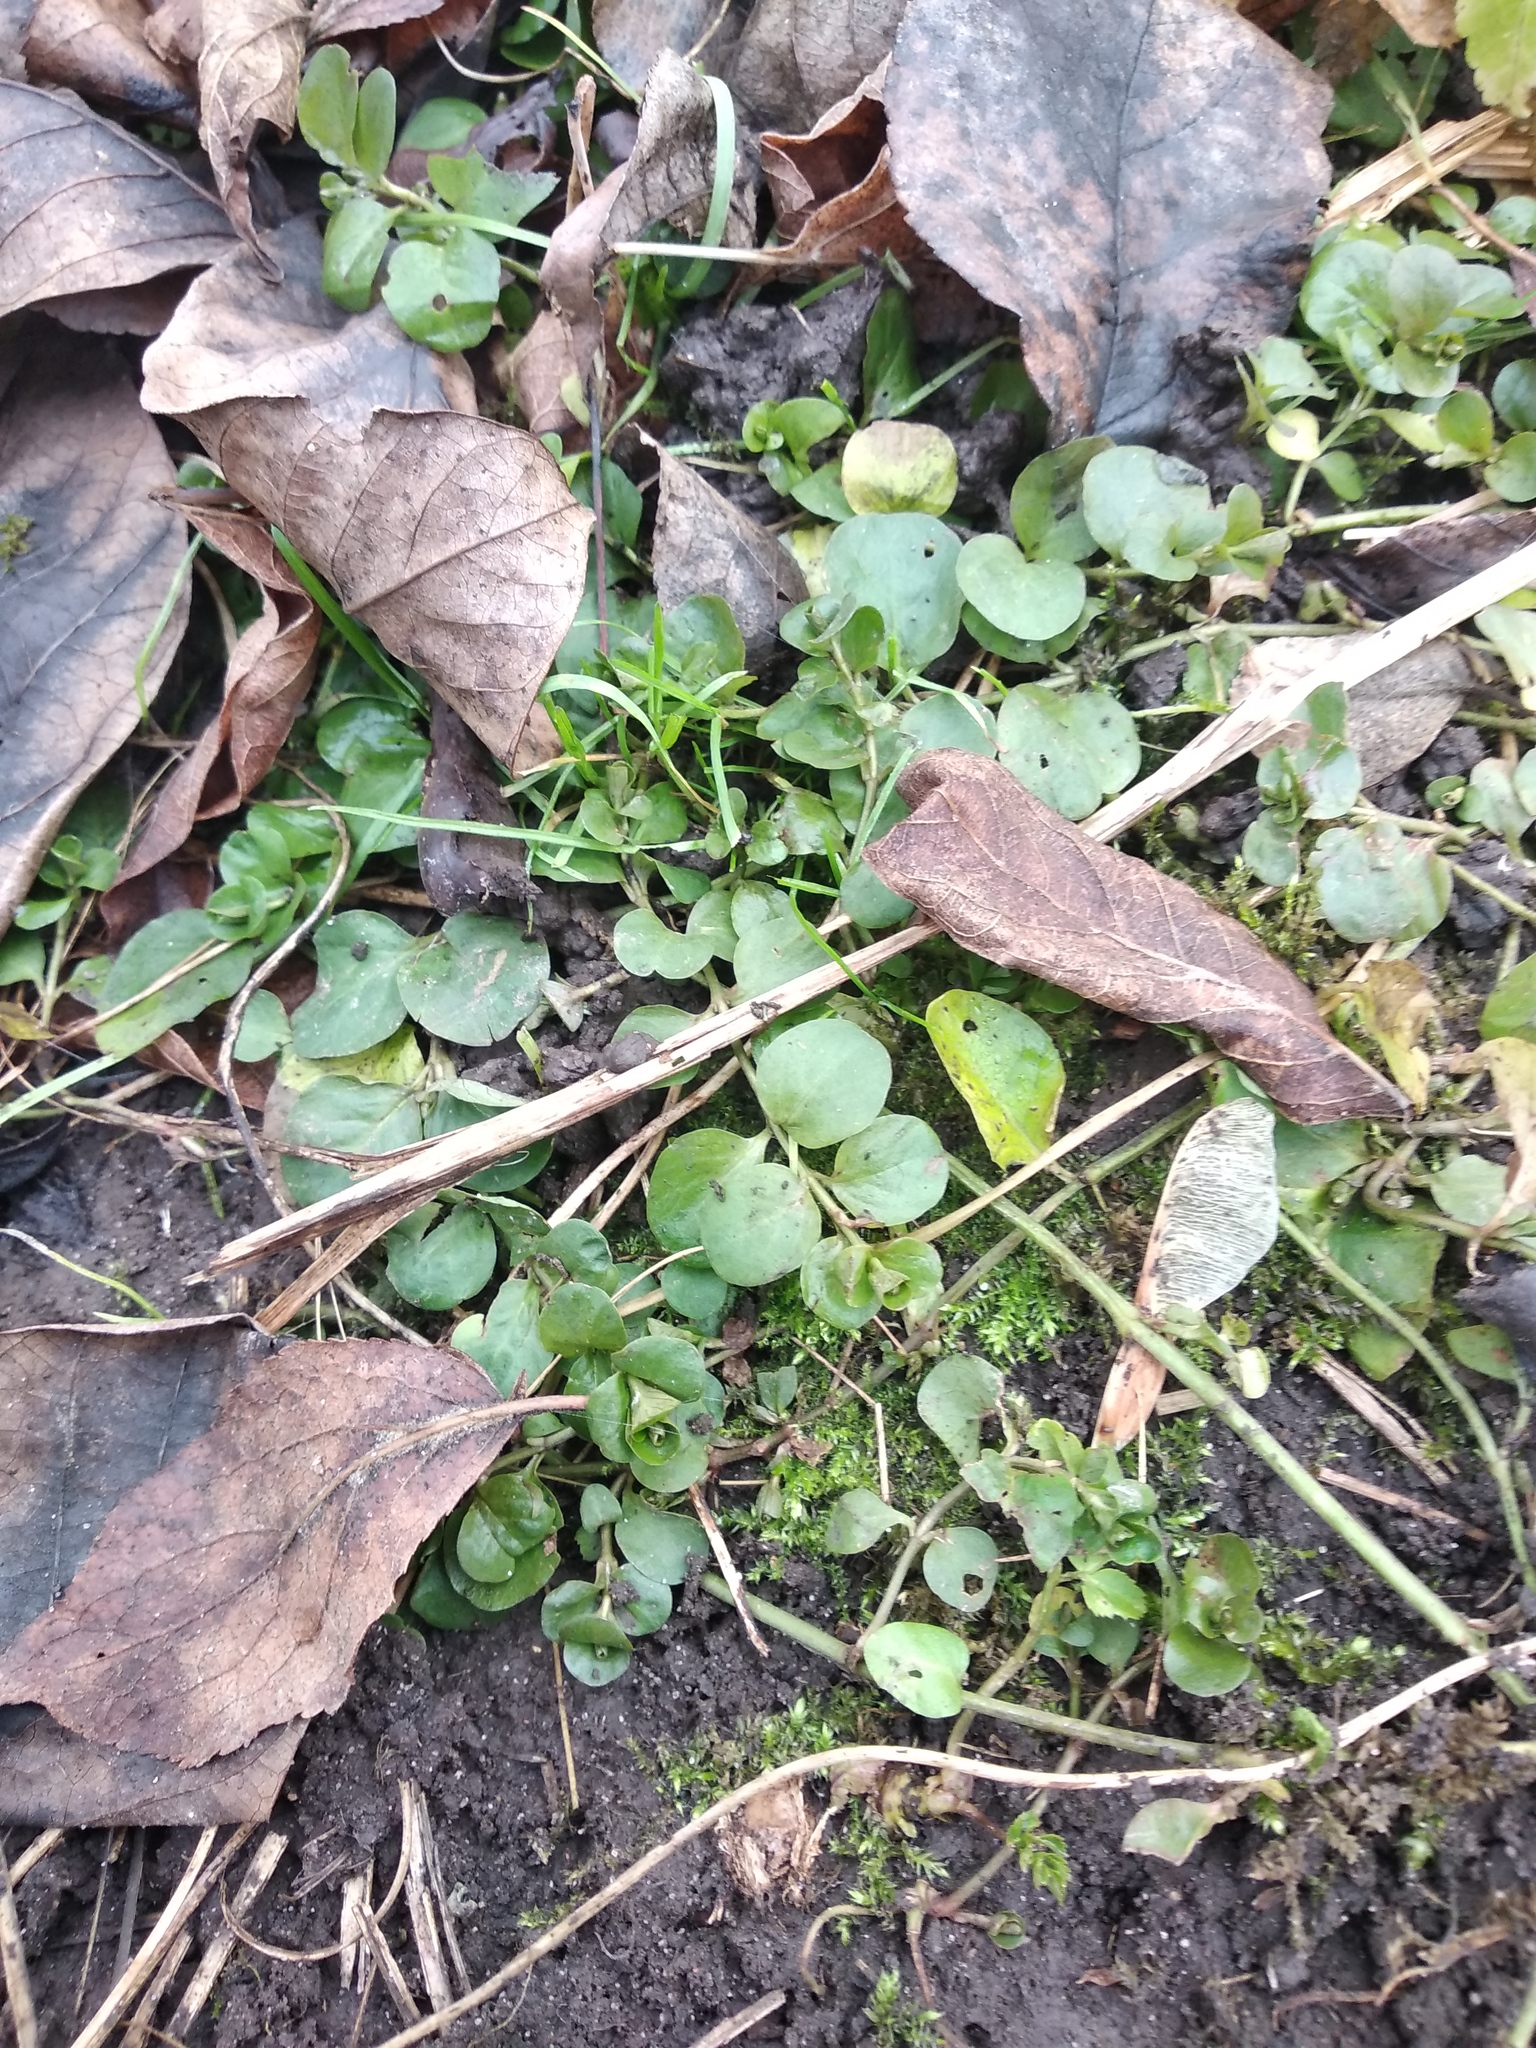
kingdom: Plantae
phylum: Tracheophyta
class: Magnoliopsida
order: Ericales
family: Primulaceae
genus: Lysimachia
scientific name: Lysimachia nummularia
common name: Moneywort
